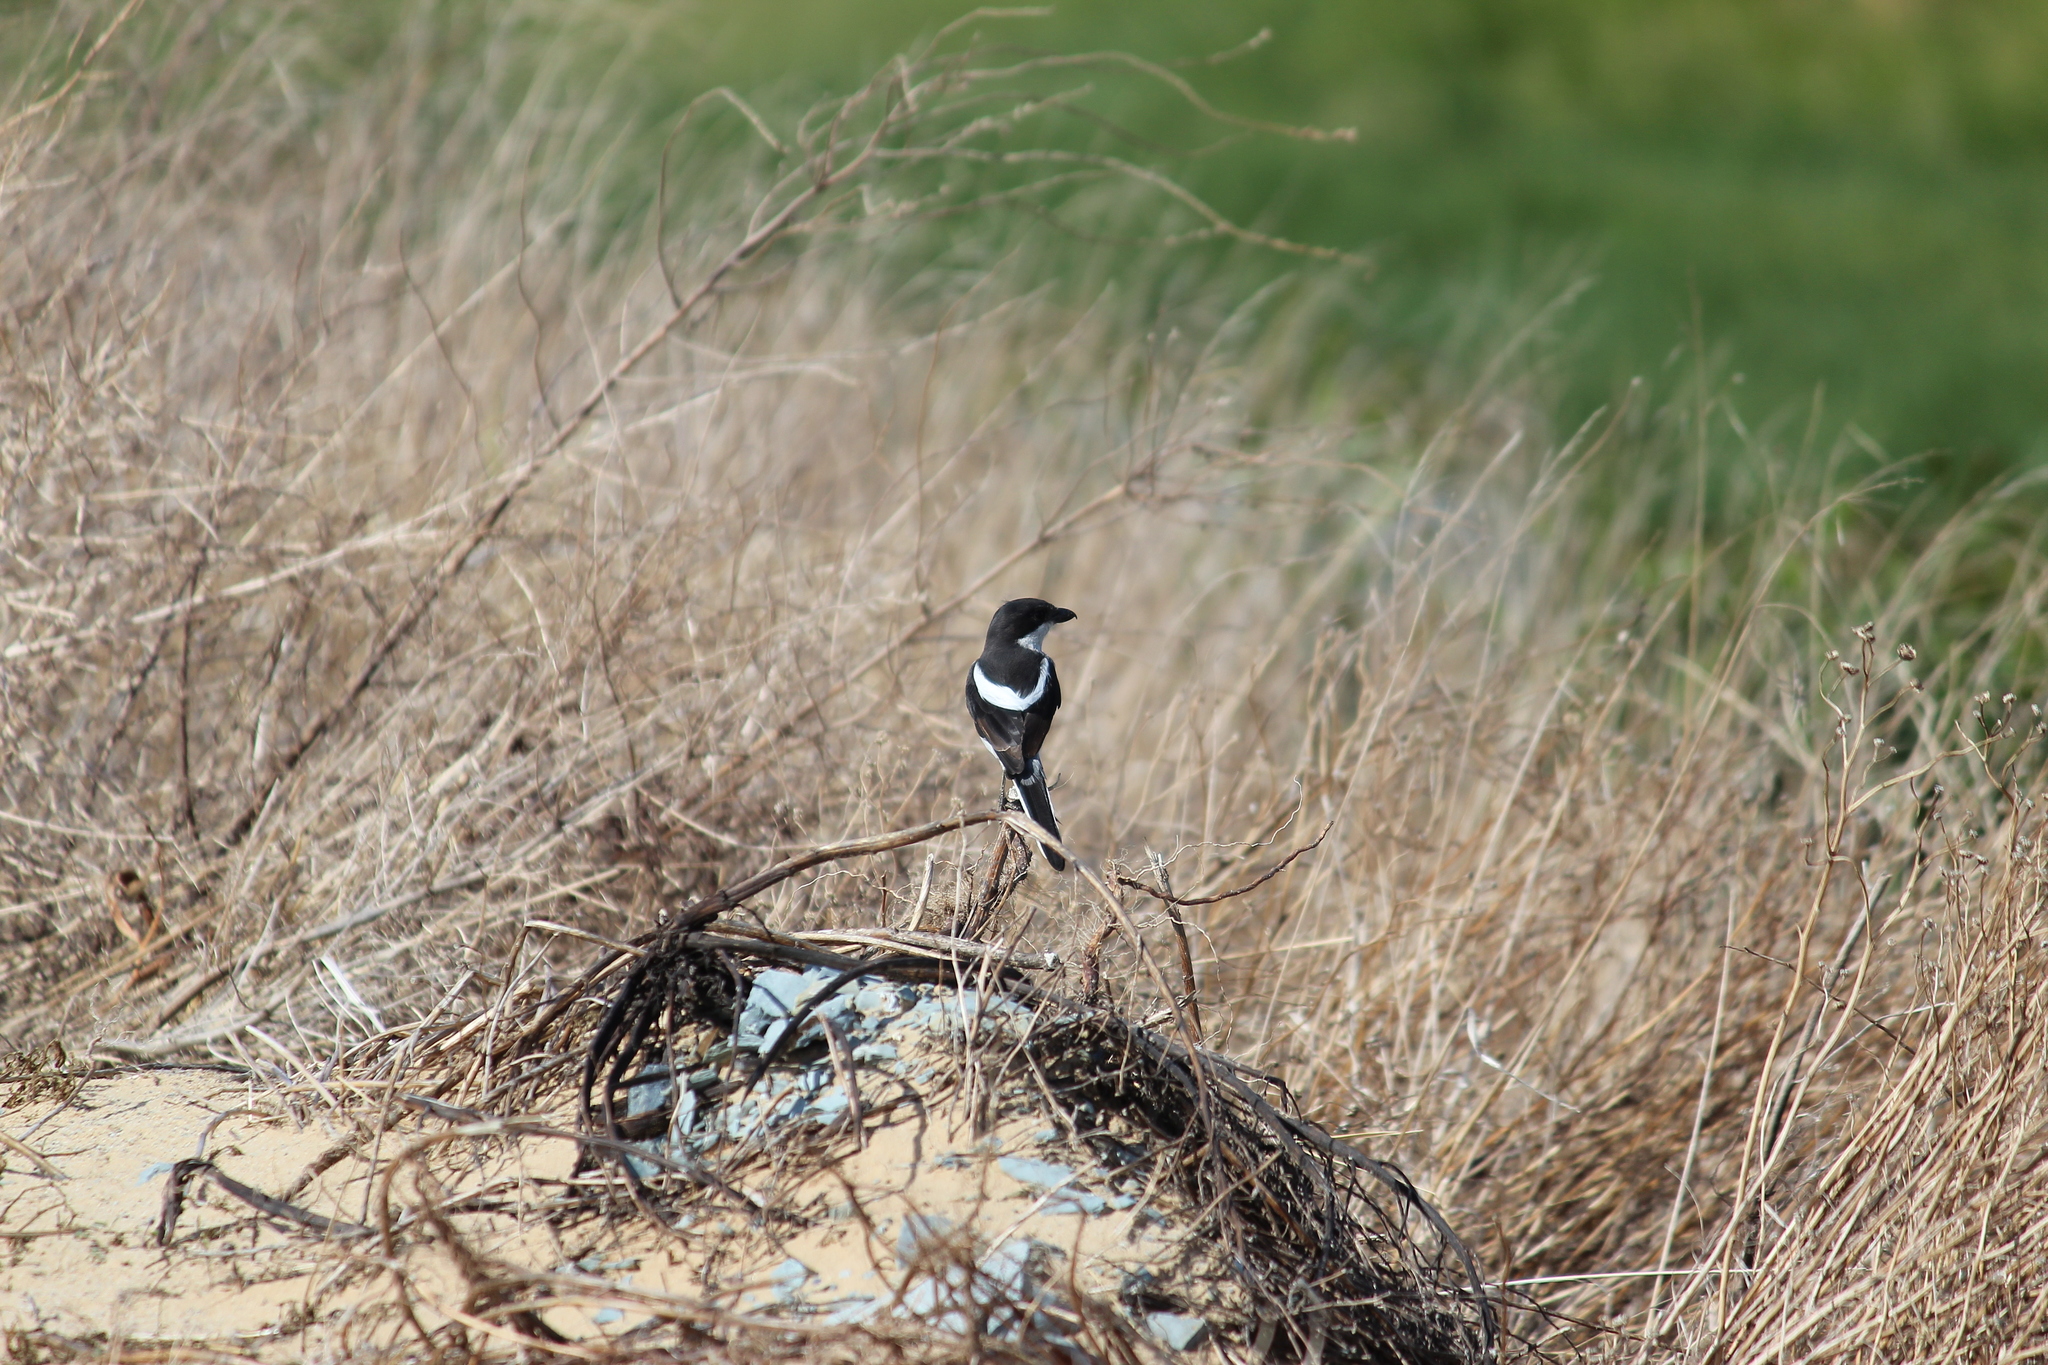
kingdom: Animalia
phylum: Chordata
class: Aves
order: Passeriformes
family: Laniidae
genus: Lanius
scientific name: Lanius collaris
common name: Southern fiscal
